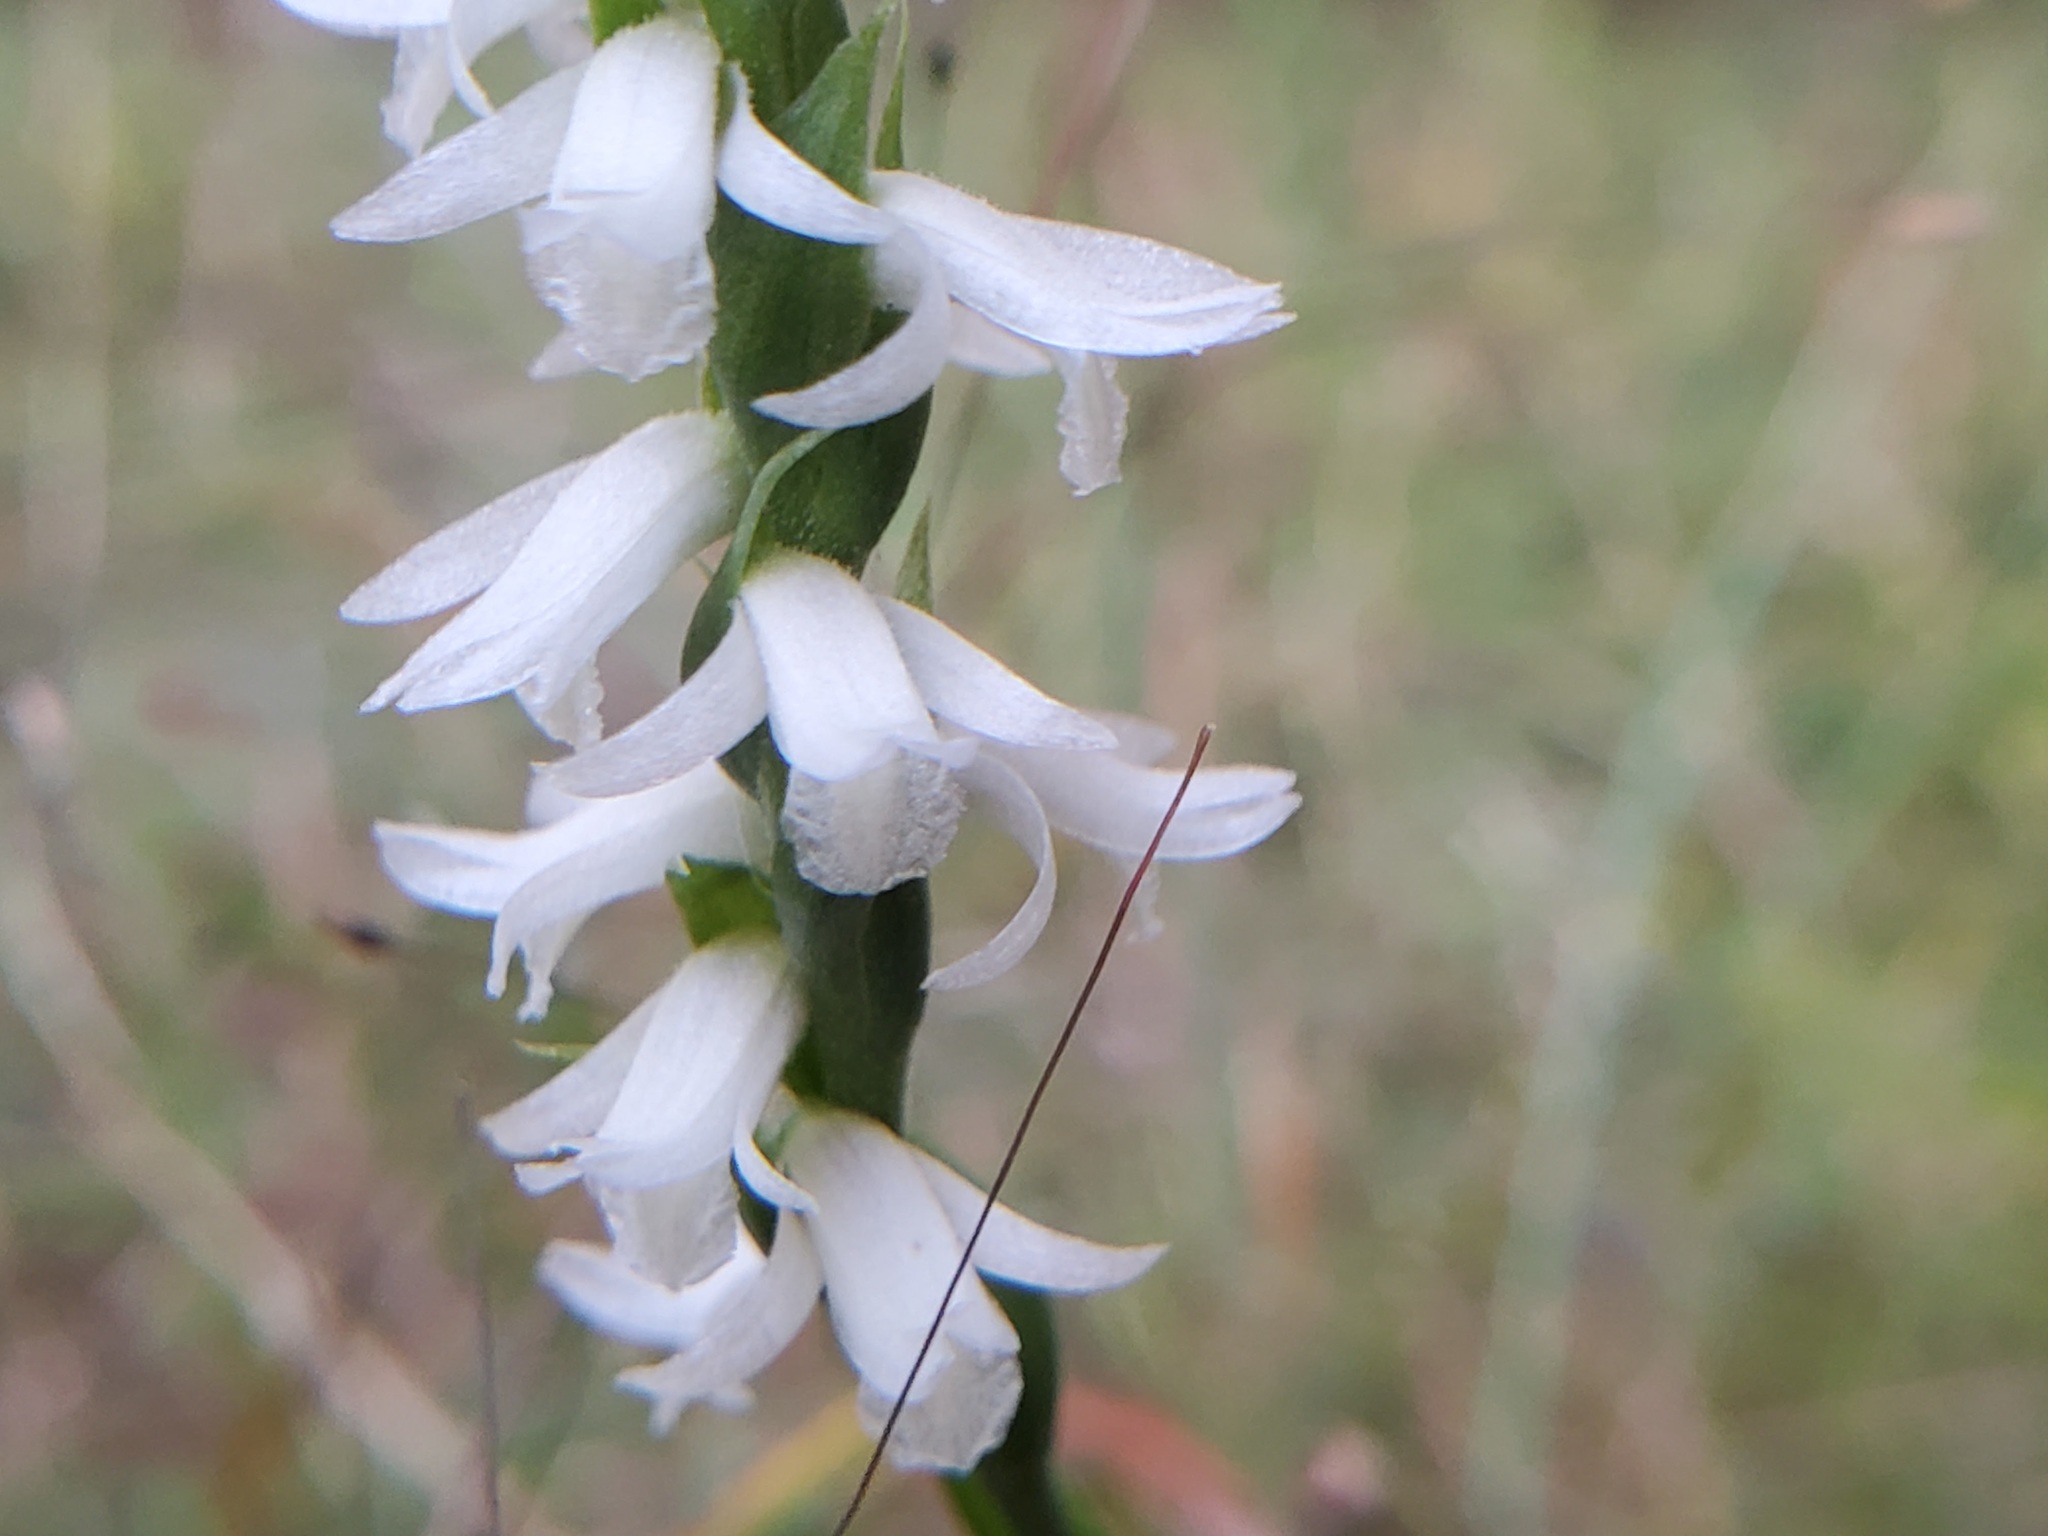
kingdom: Plantae
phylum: Tracheophyta
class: Liliopsida
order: Asparagales
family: Orchidaceae
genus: Spiranthes
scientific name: Spiranthes magnicamporum
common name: Great plains ladies'-tresses
